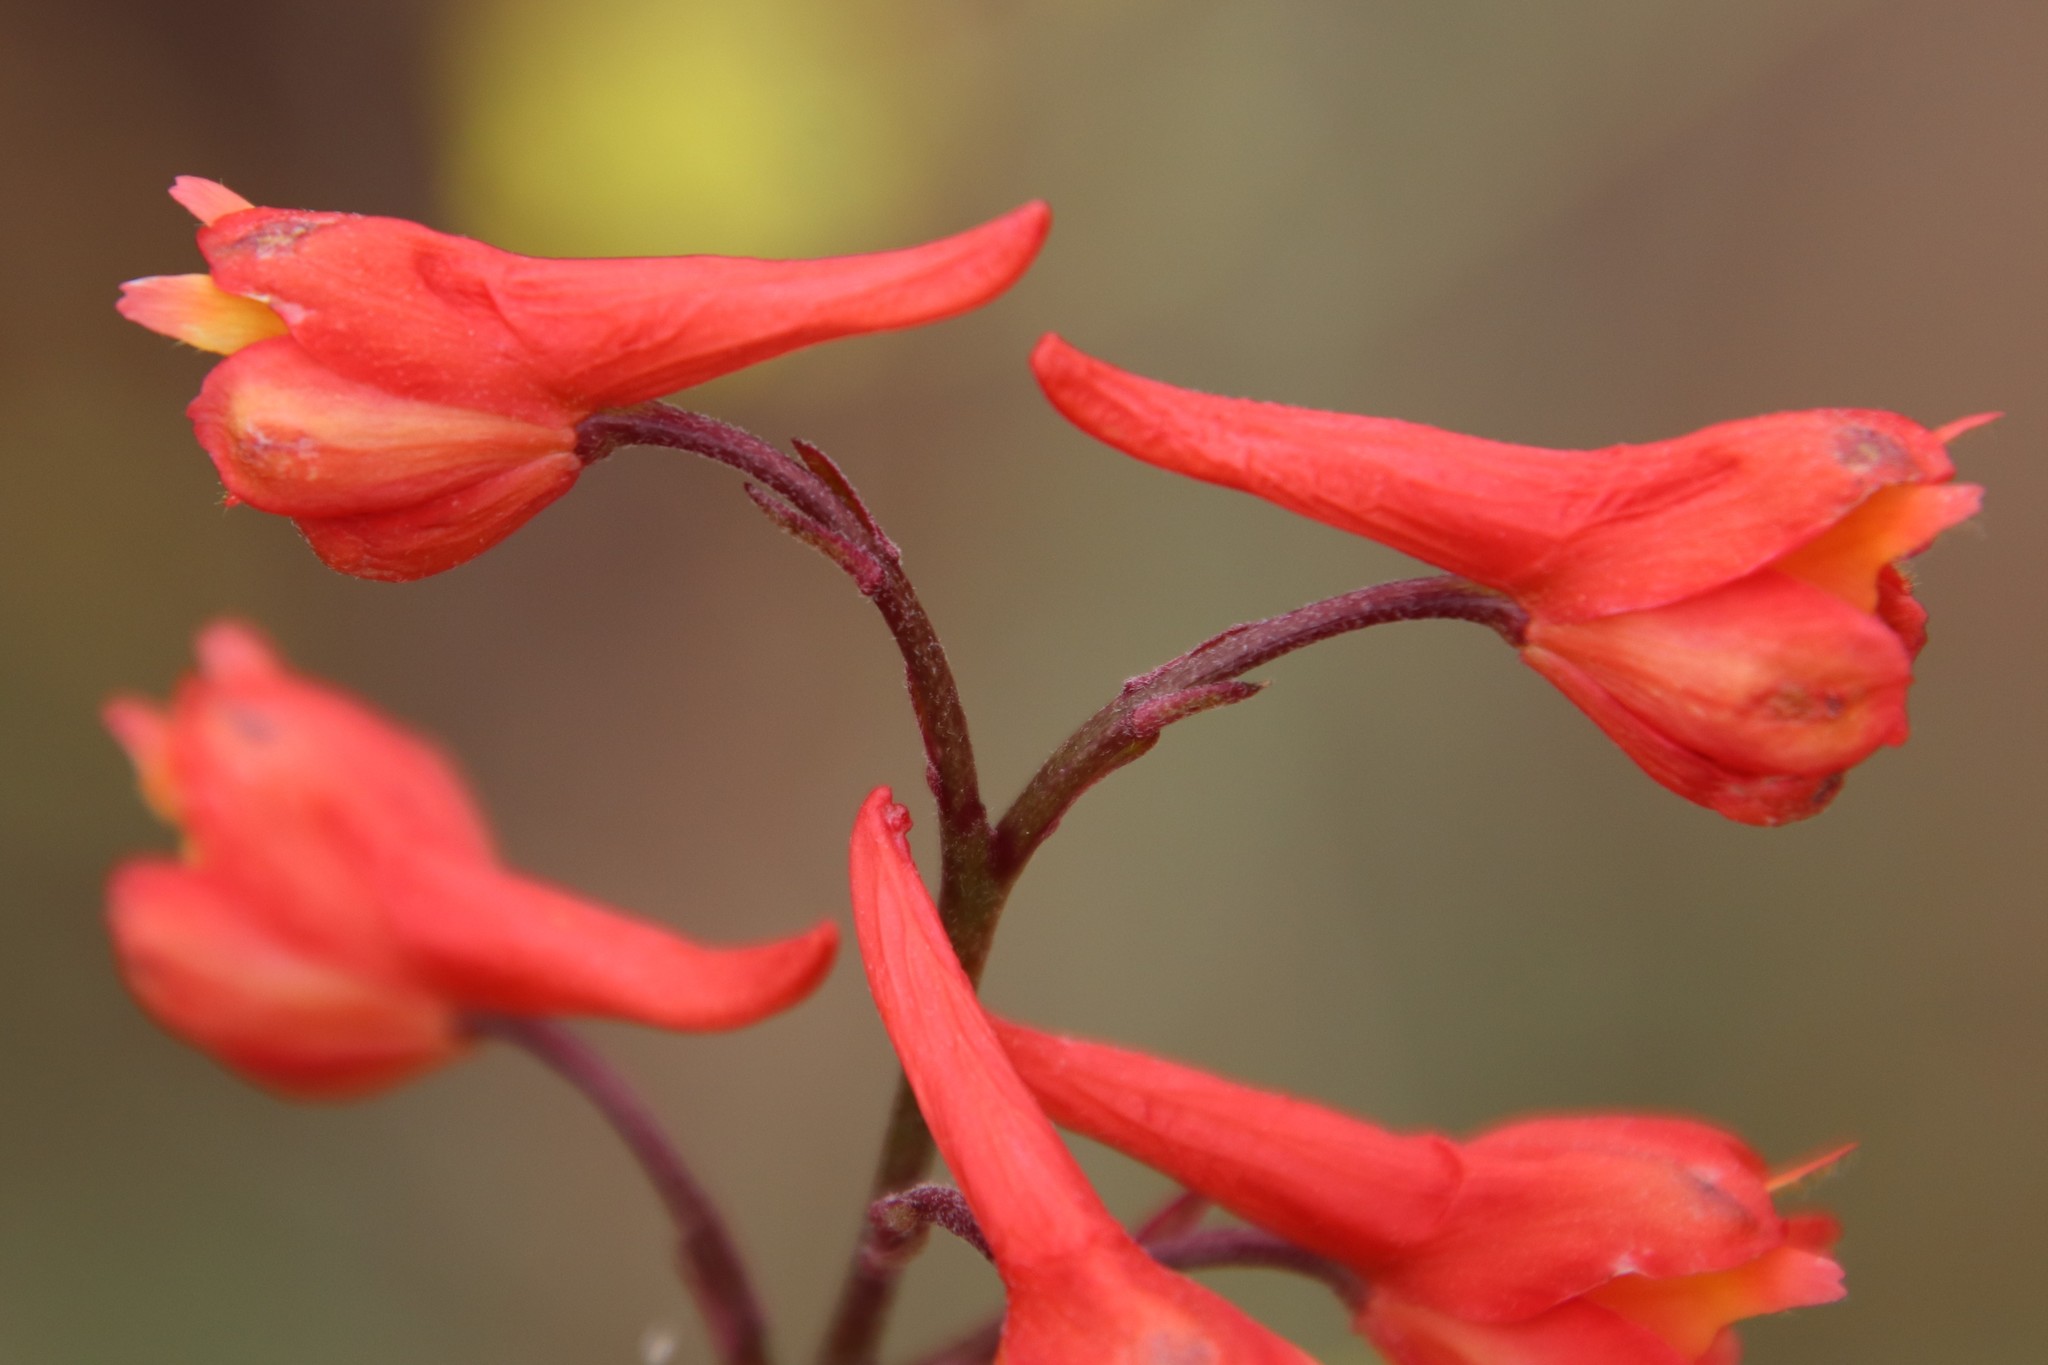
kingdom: Plantae
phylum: Tracheophyta
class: Magnoliopsida
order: Ranunculales
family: Ranunculaceae
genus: Delphinium
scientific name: Delphinium cardinale
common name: Scarlet larkspur
